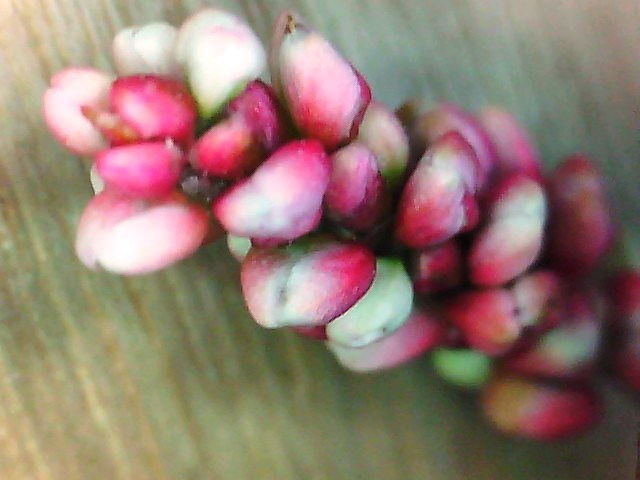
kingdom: Plantae
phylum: Tracheophyta
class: Magnoliopsida
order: Caryophyllales
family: Polygonaceae
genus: Persicaria
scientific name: Persicaria maculosa
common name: Redshank
